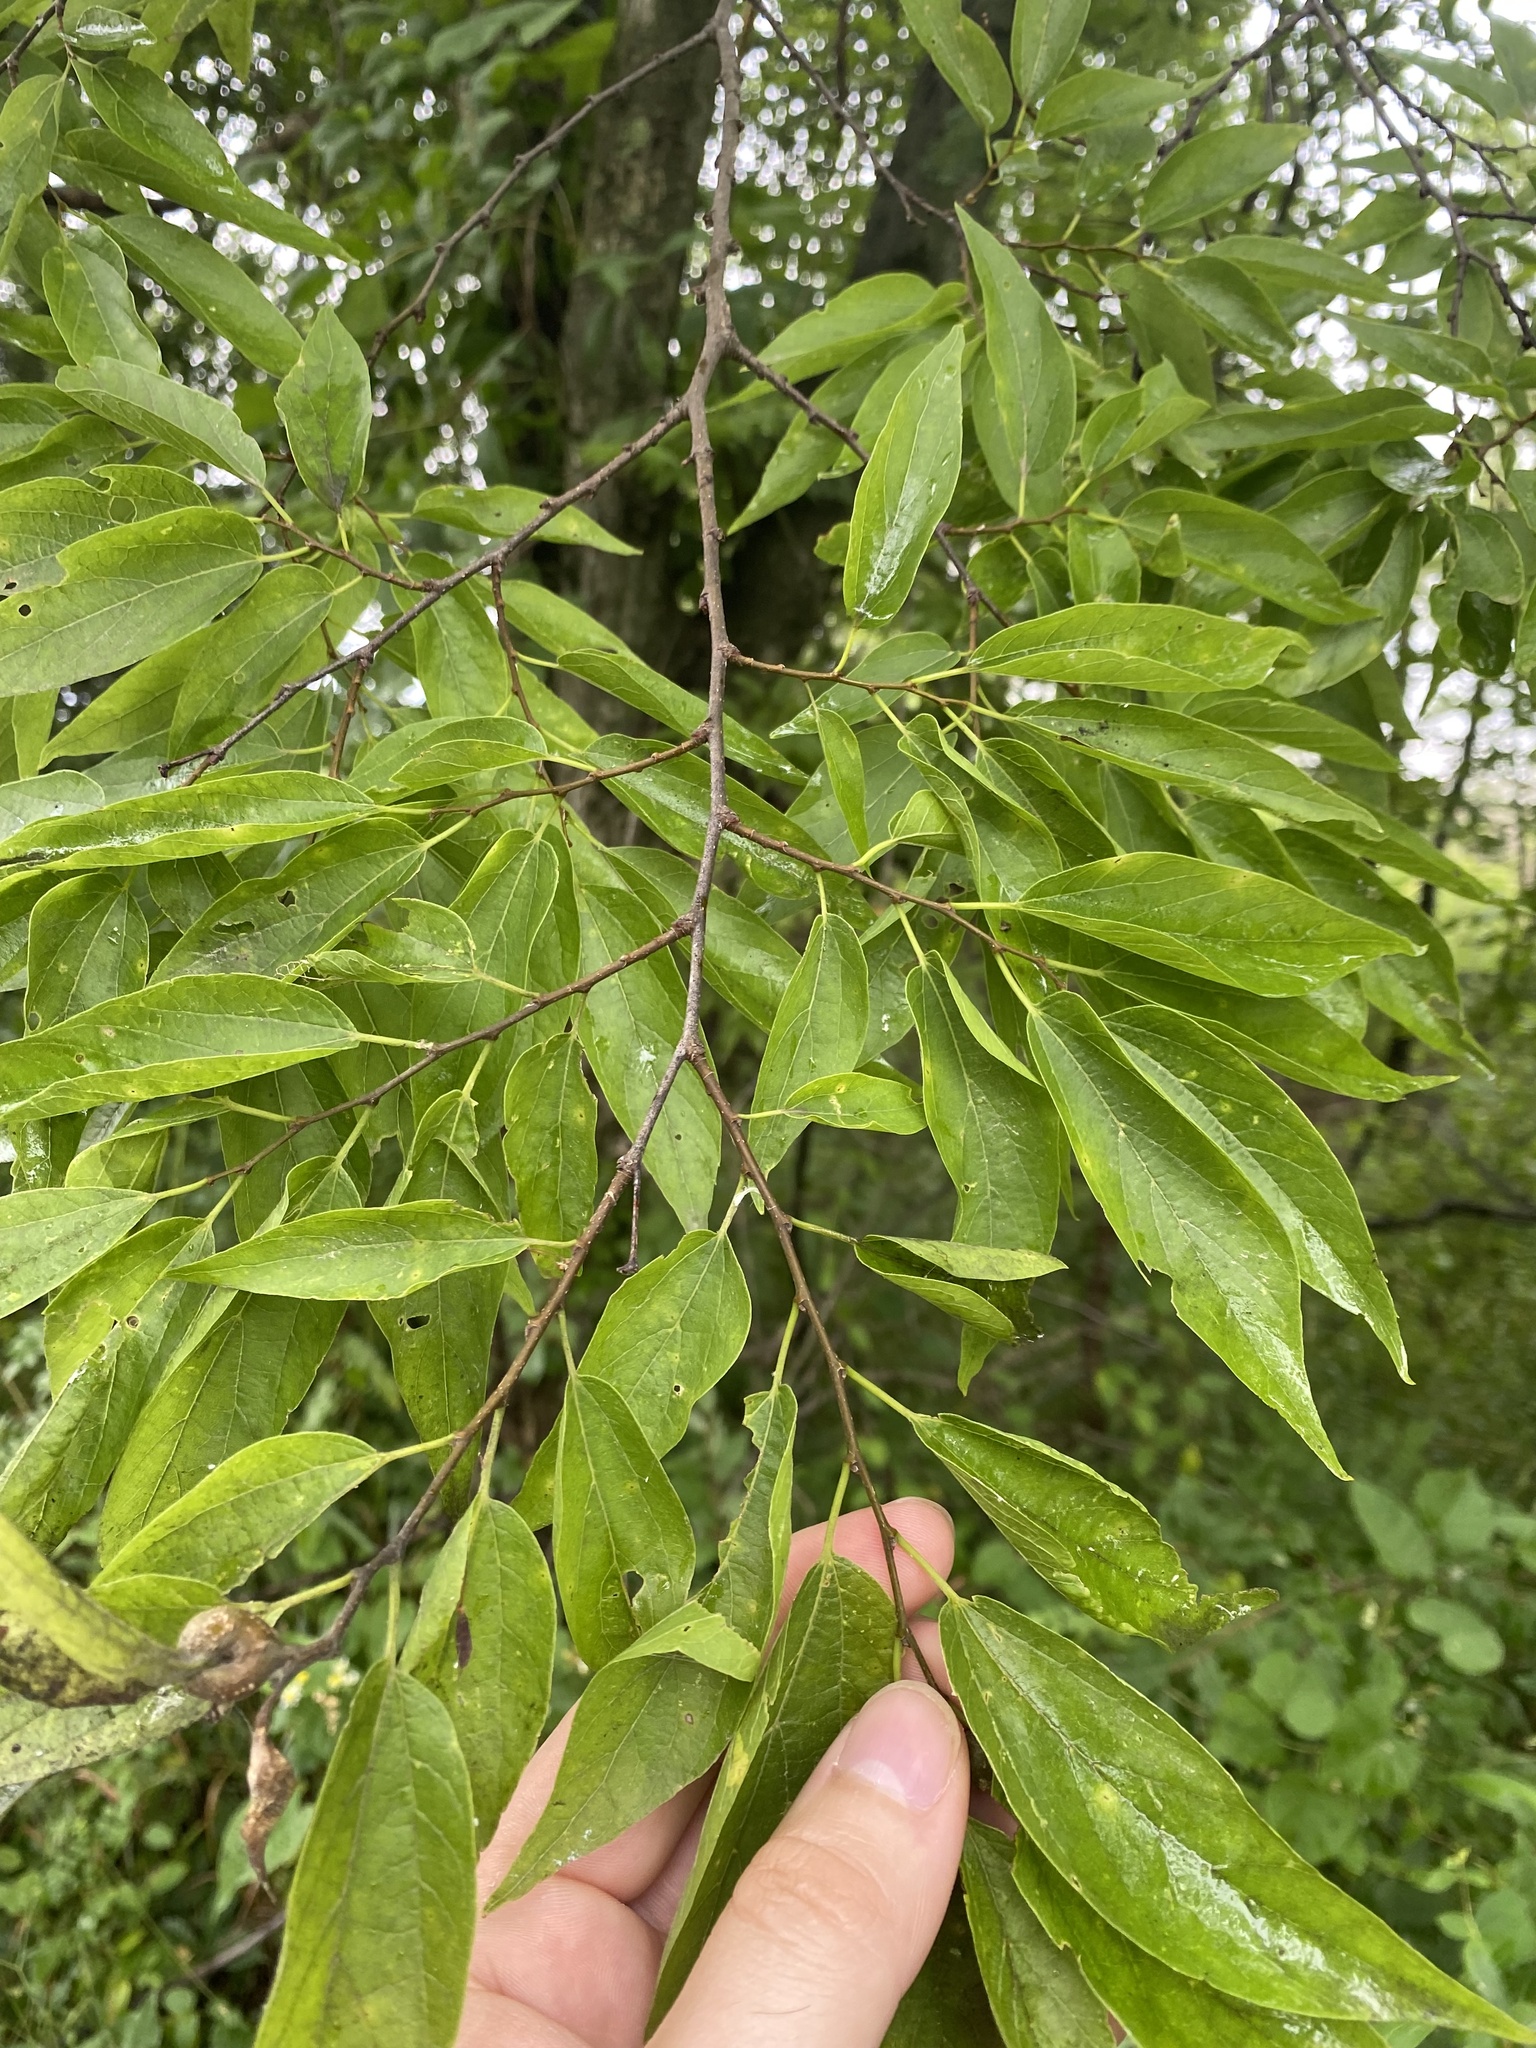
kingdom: Plantae
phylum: Tracheophyta
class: Magnoliopsida
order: Rosales
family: Cannabaceae
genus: Celtis
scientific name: Celtis laevigata
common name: Sugarberry
